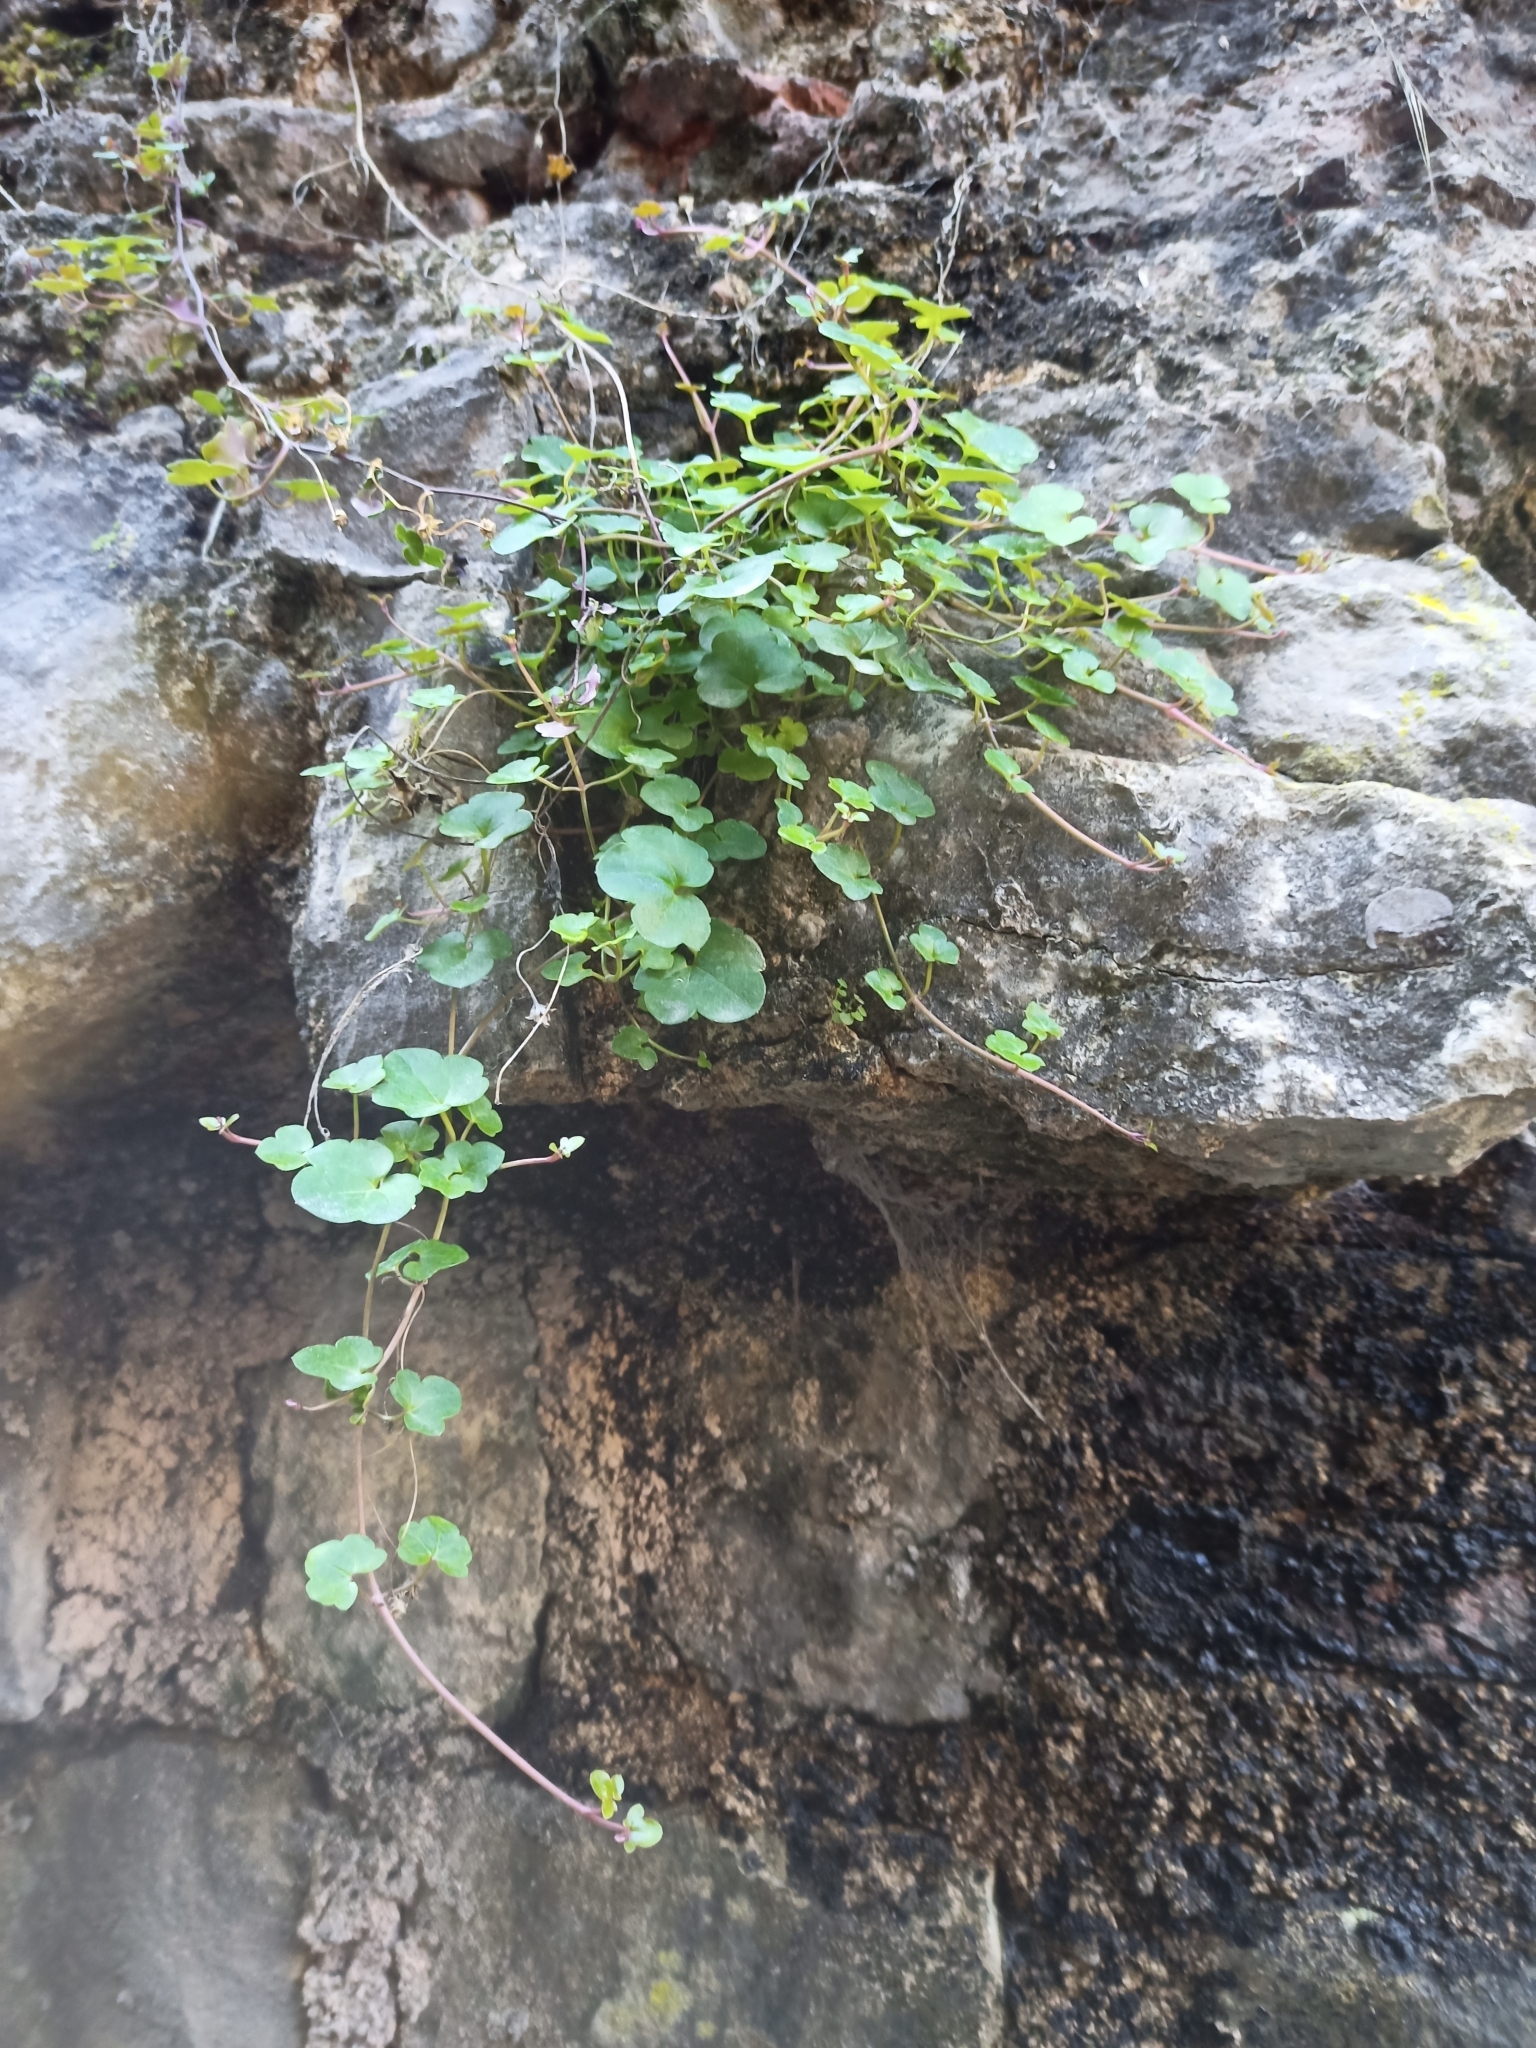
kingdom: Plantae
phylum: Tracheophyta
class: Magnoliopsida
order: Lamiales
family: Plantaginaceae
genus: Cymbalaria
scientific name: Cymbalaria muralis
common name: Ivy-leaved toadflax
